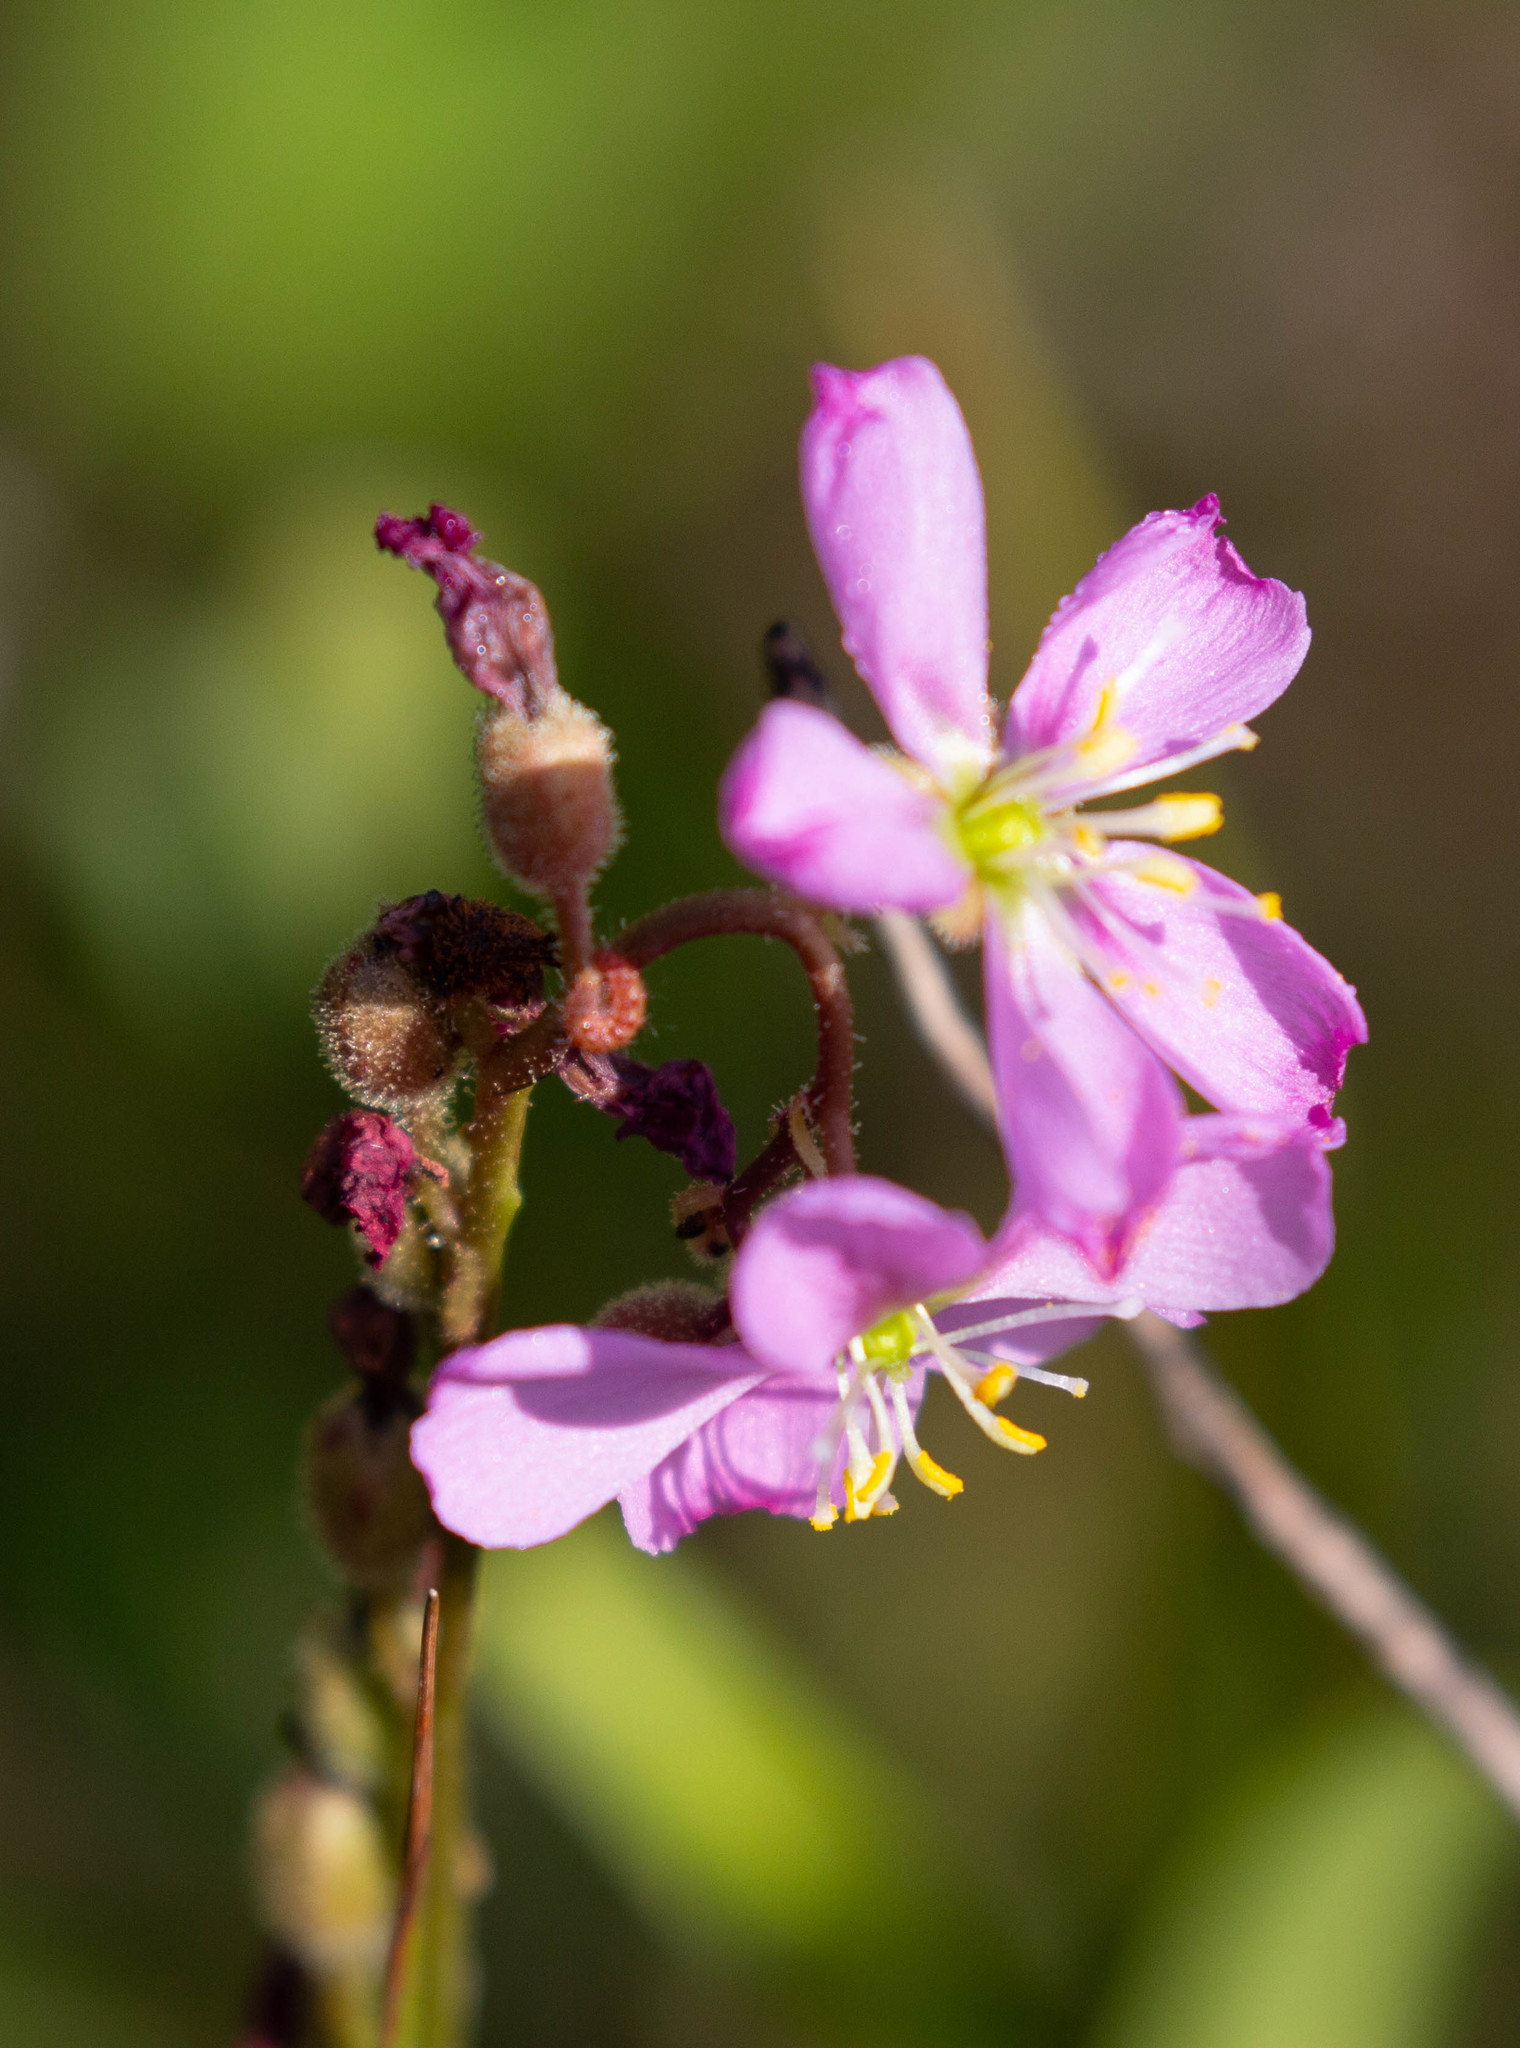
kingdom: Plantae
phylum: Tracheophyta
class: Magnoliopsida
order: Caryophyllales
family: Droseraceae
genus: Drosera
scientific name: Drosera filiformis
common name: Dew-thread
